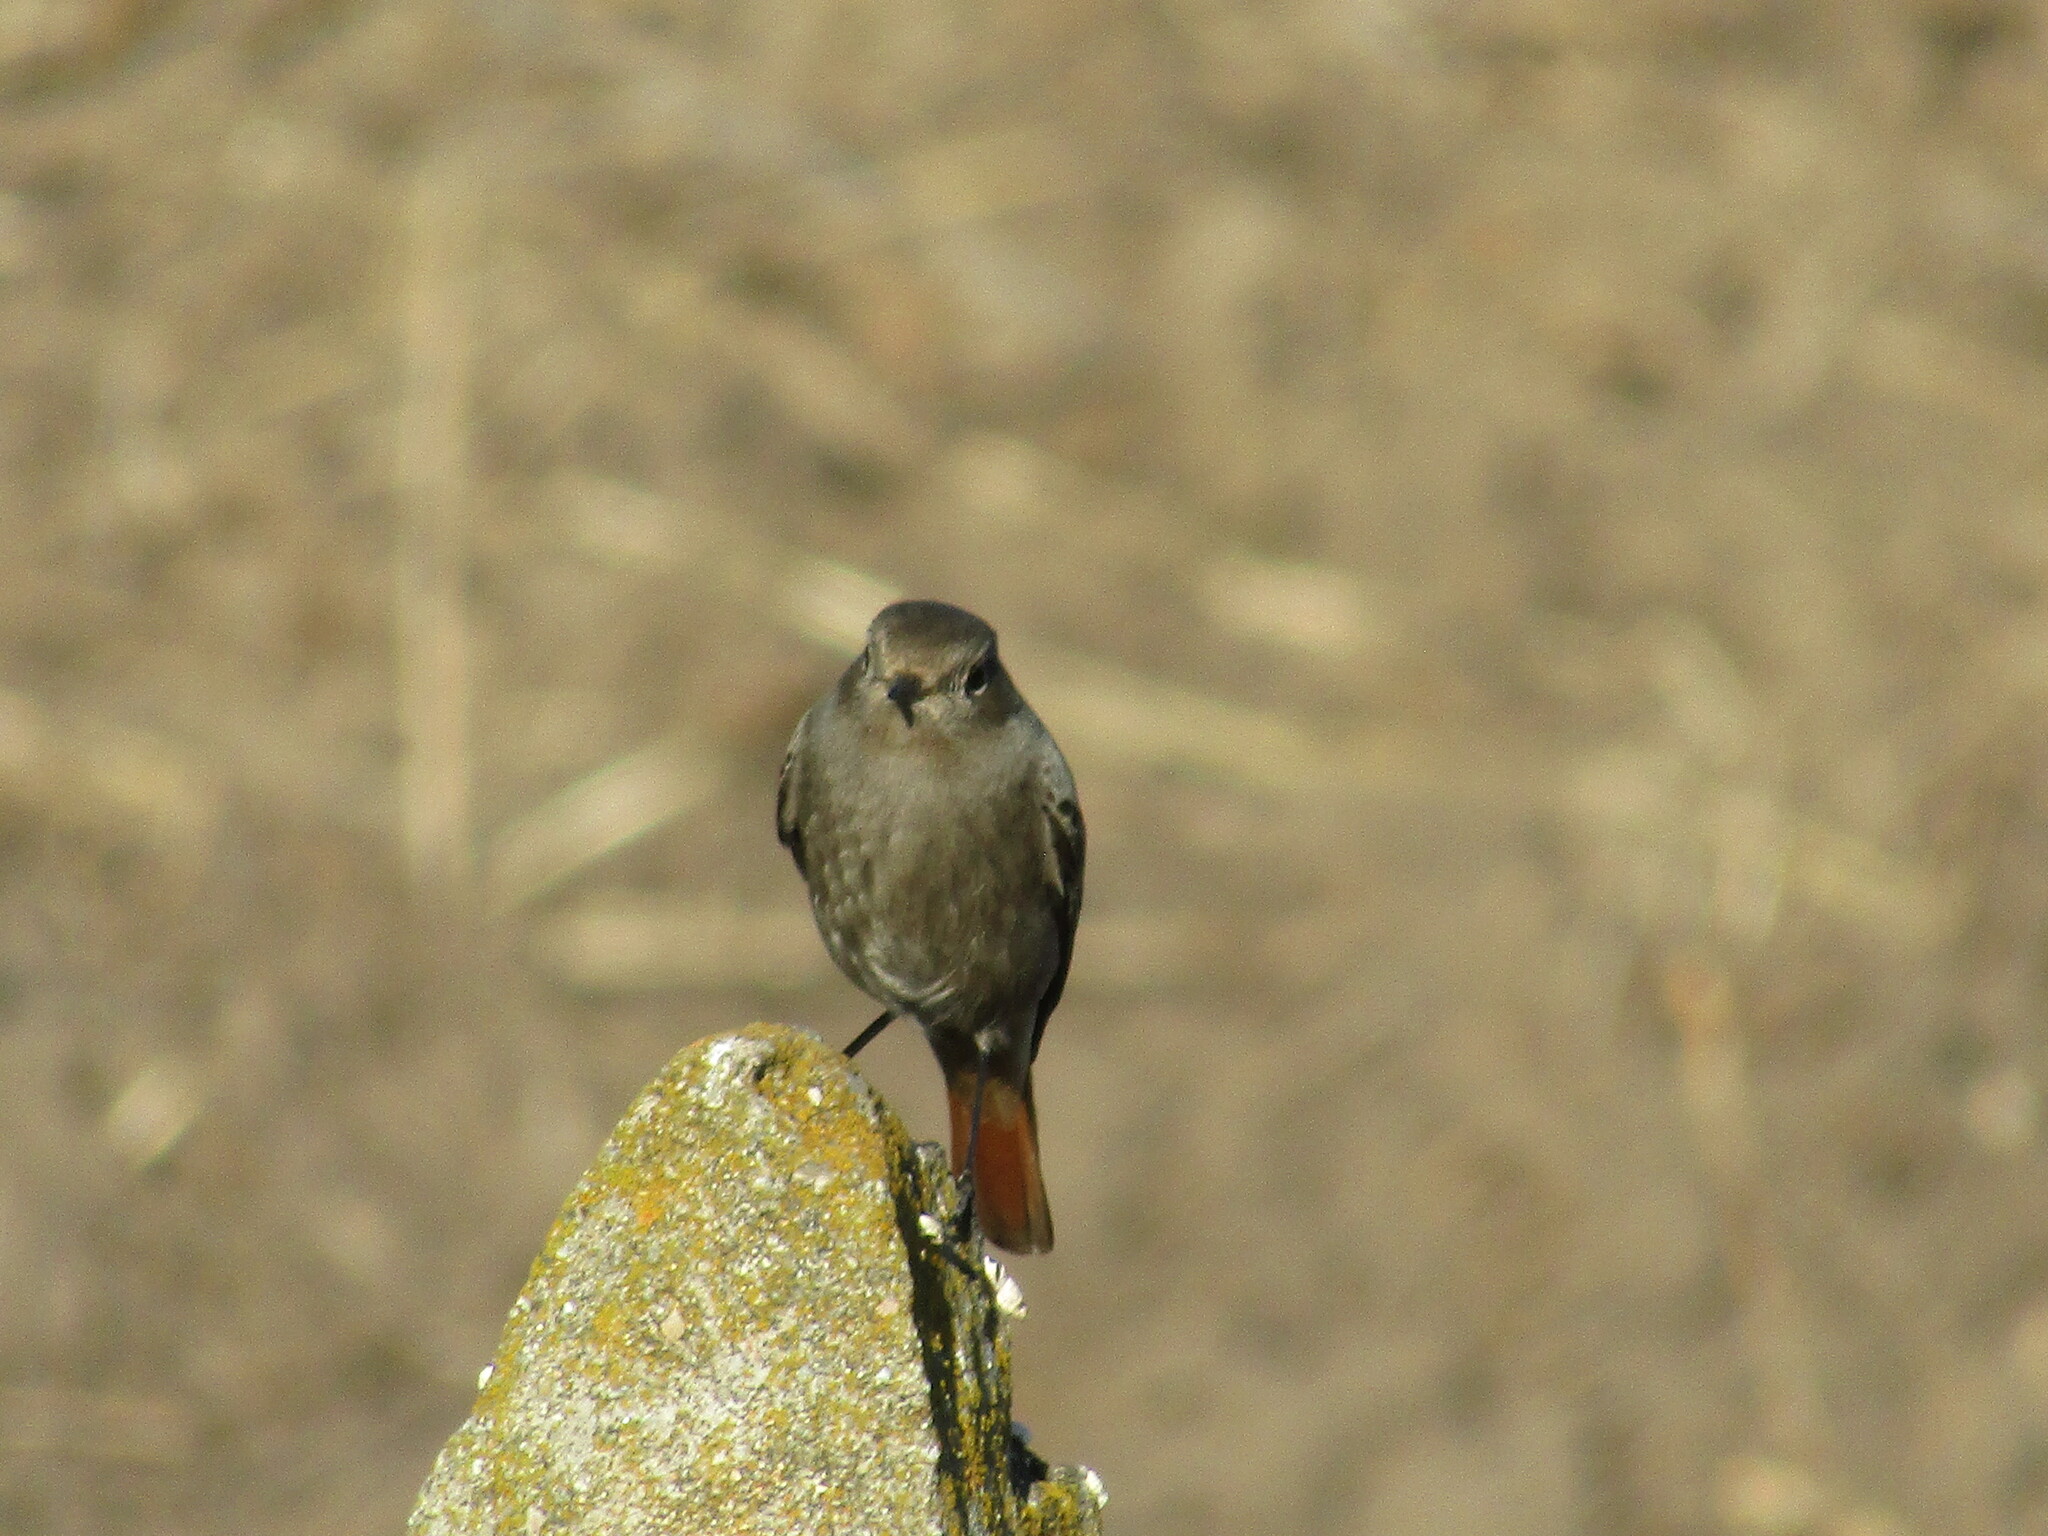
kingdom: Animalia
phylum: Chordata
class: Aves
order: Passeriformes
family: Muscicapidae
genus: Phoenicurus
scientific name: Phoenicurus ochruros
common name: Black redstart
